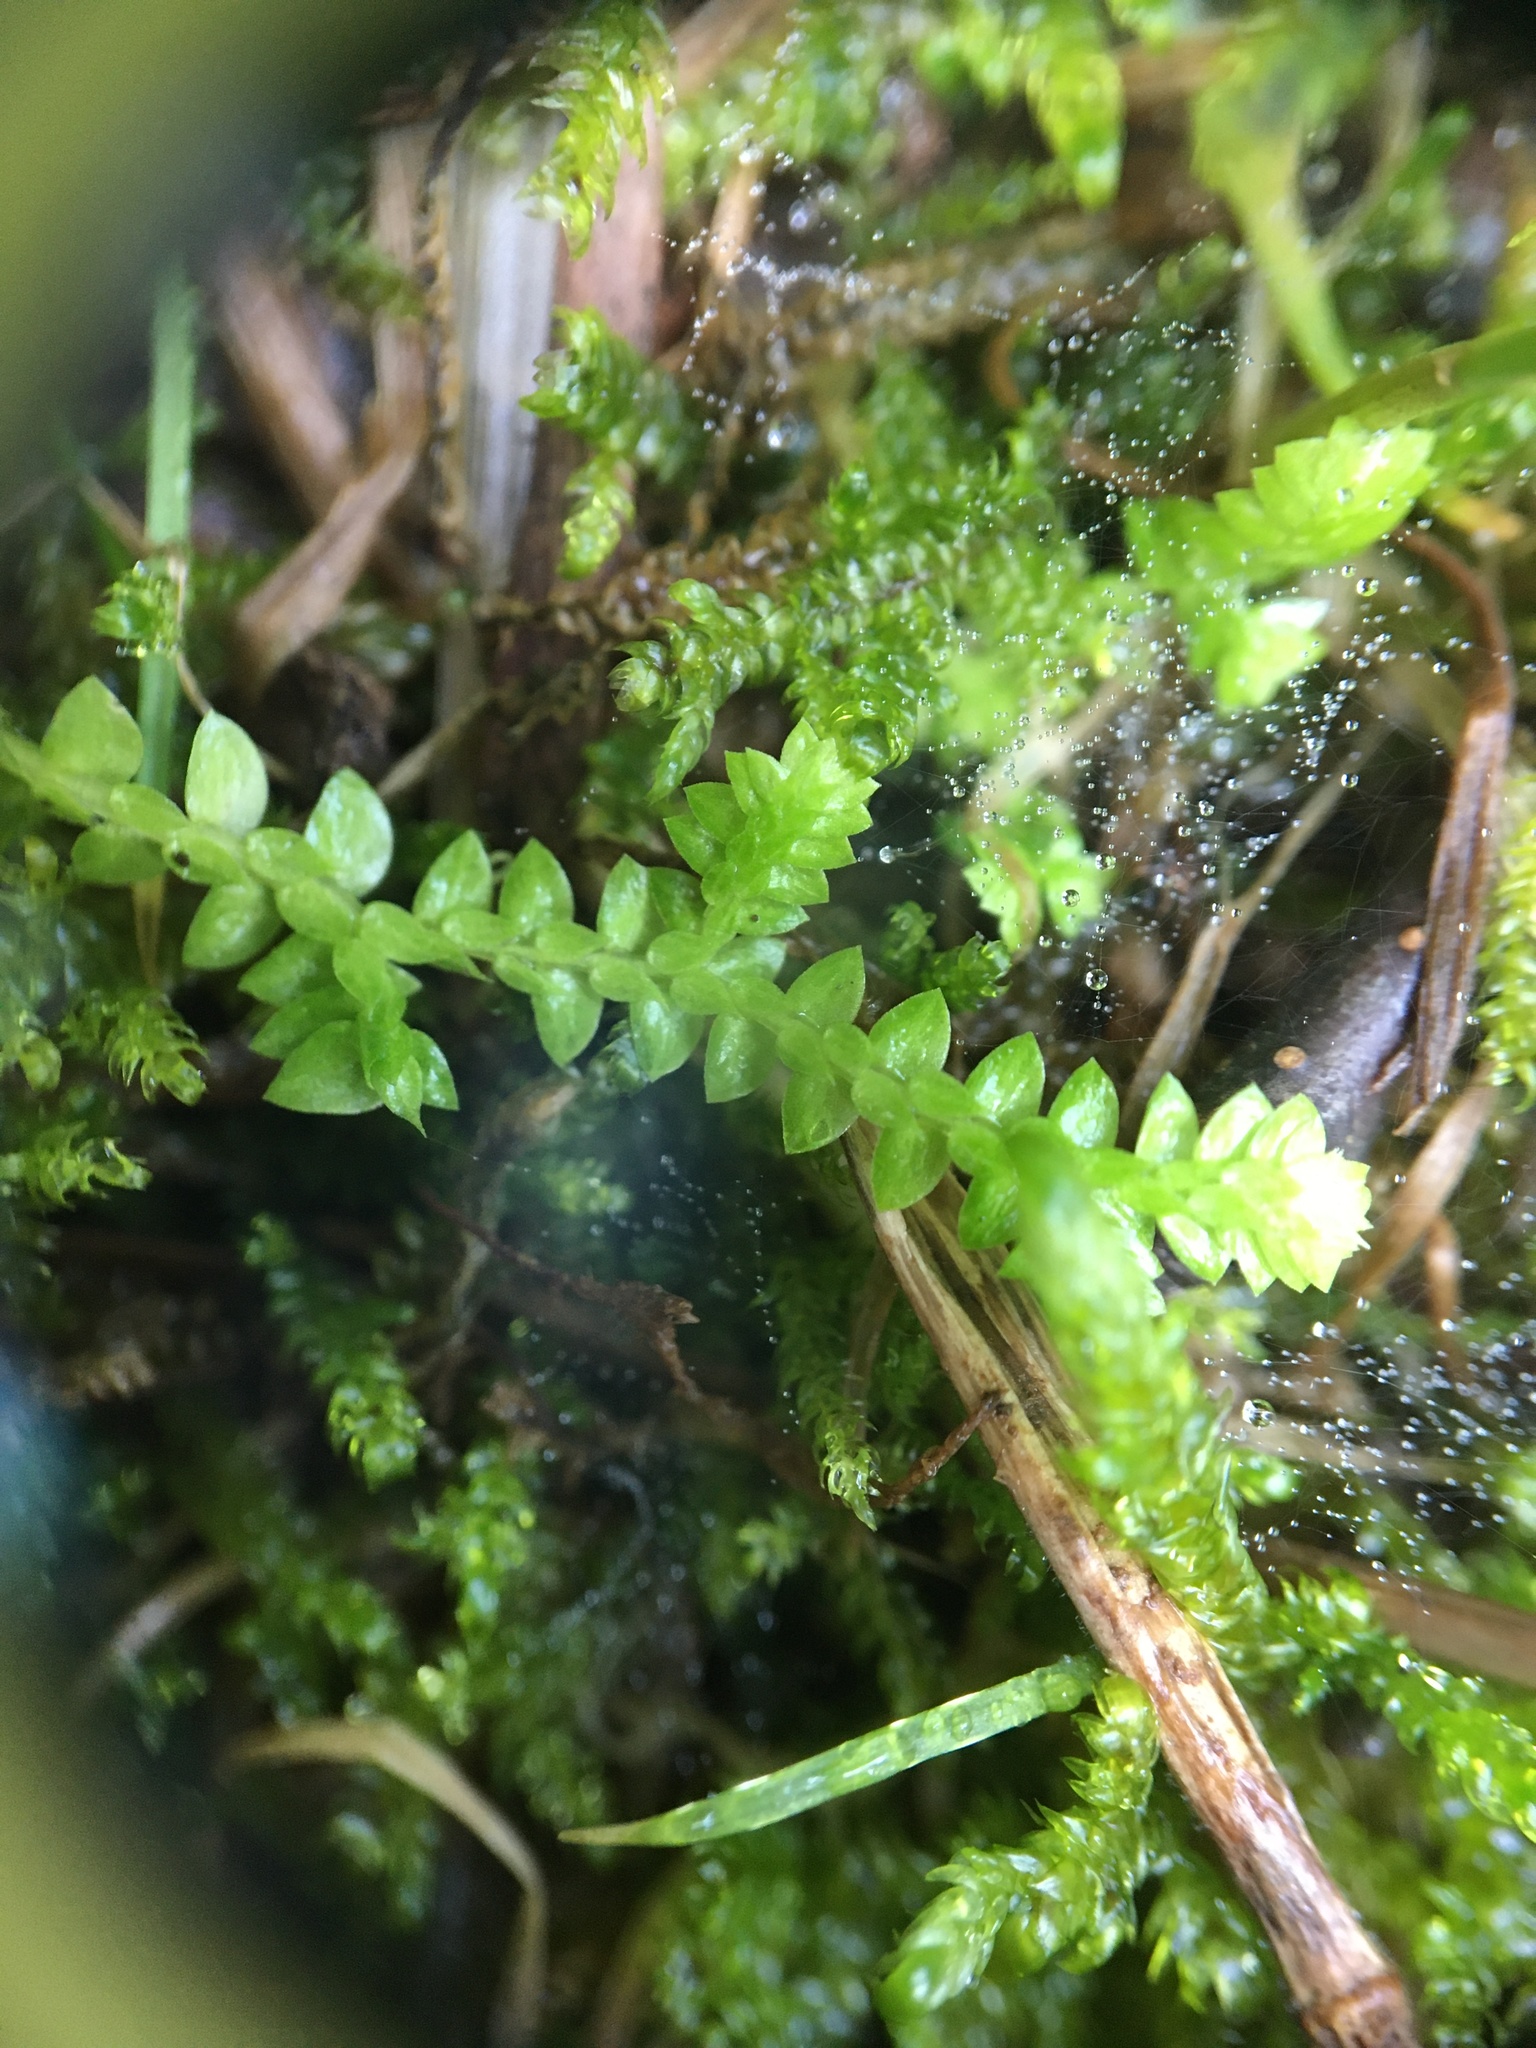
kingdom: Plantae
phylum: Tracheophyta
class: Lycopodiopsida
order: Selaginellales
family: Selaginellaceae
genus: Selaginella
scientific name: Selaginella apoda
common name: Creeping spikemoss
